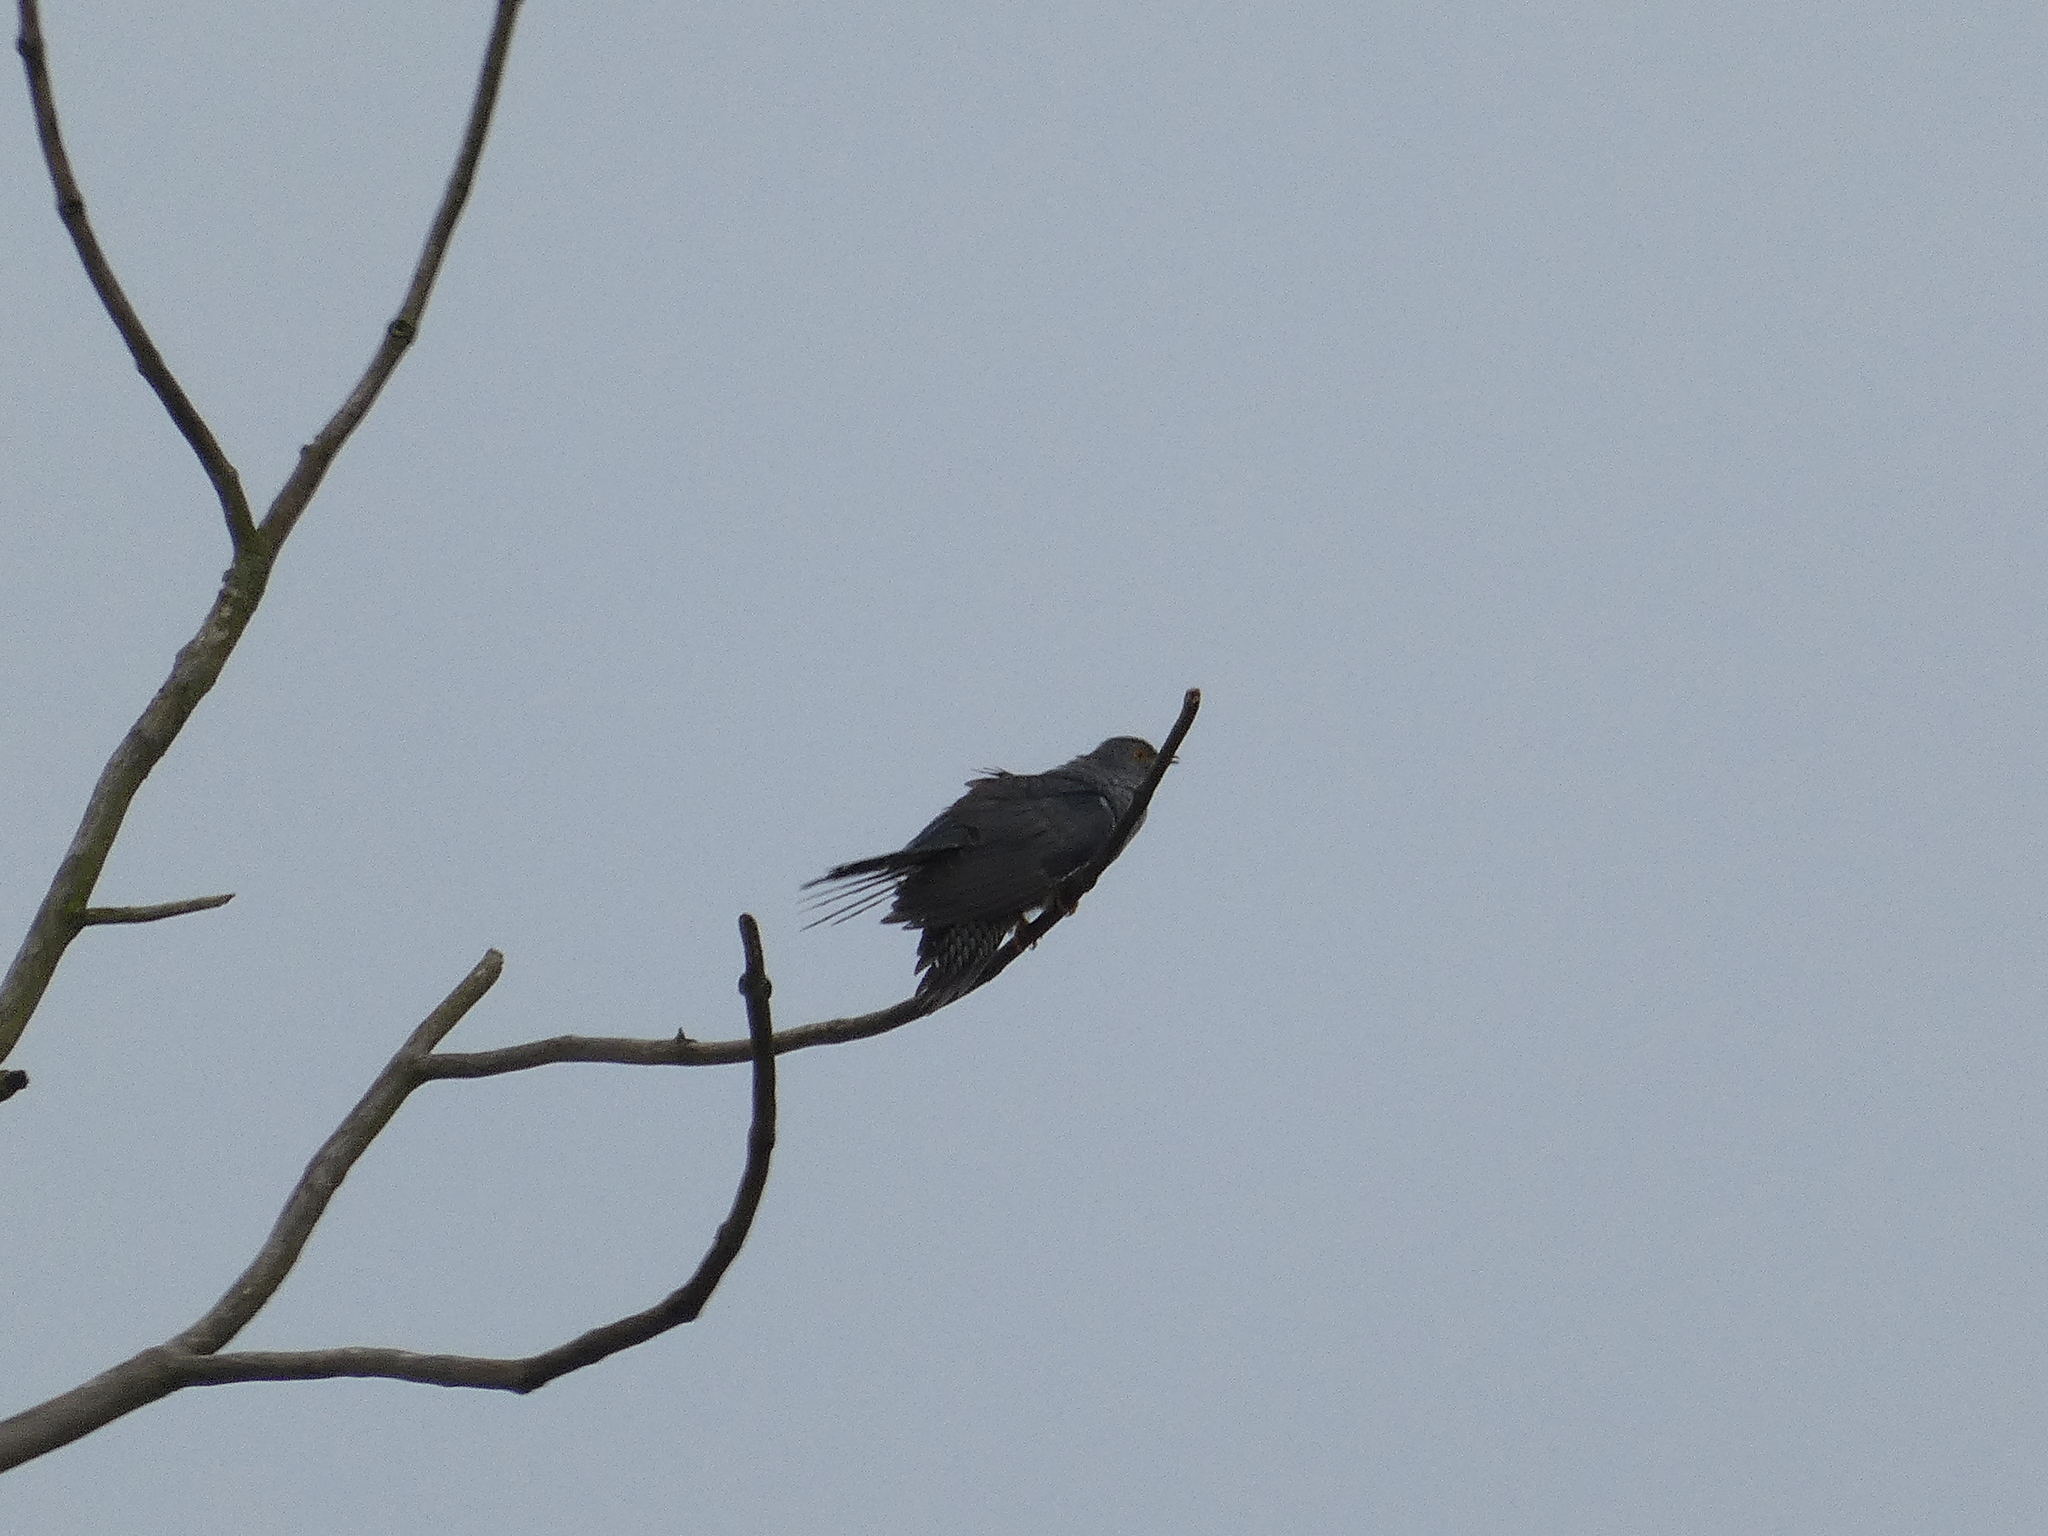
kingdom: Animalia
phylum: Chordata
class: Aves
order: Cuculiformes
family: Cuculidae
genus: Cuculus
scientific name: Cuculus canorus
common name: Common cuckoo
